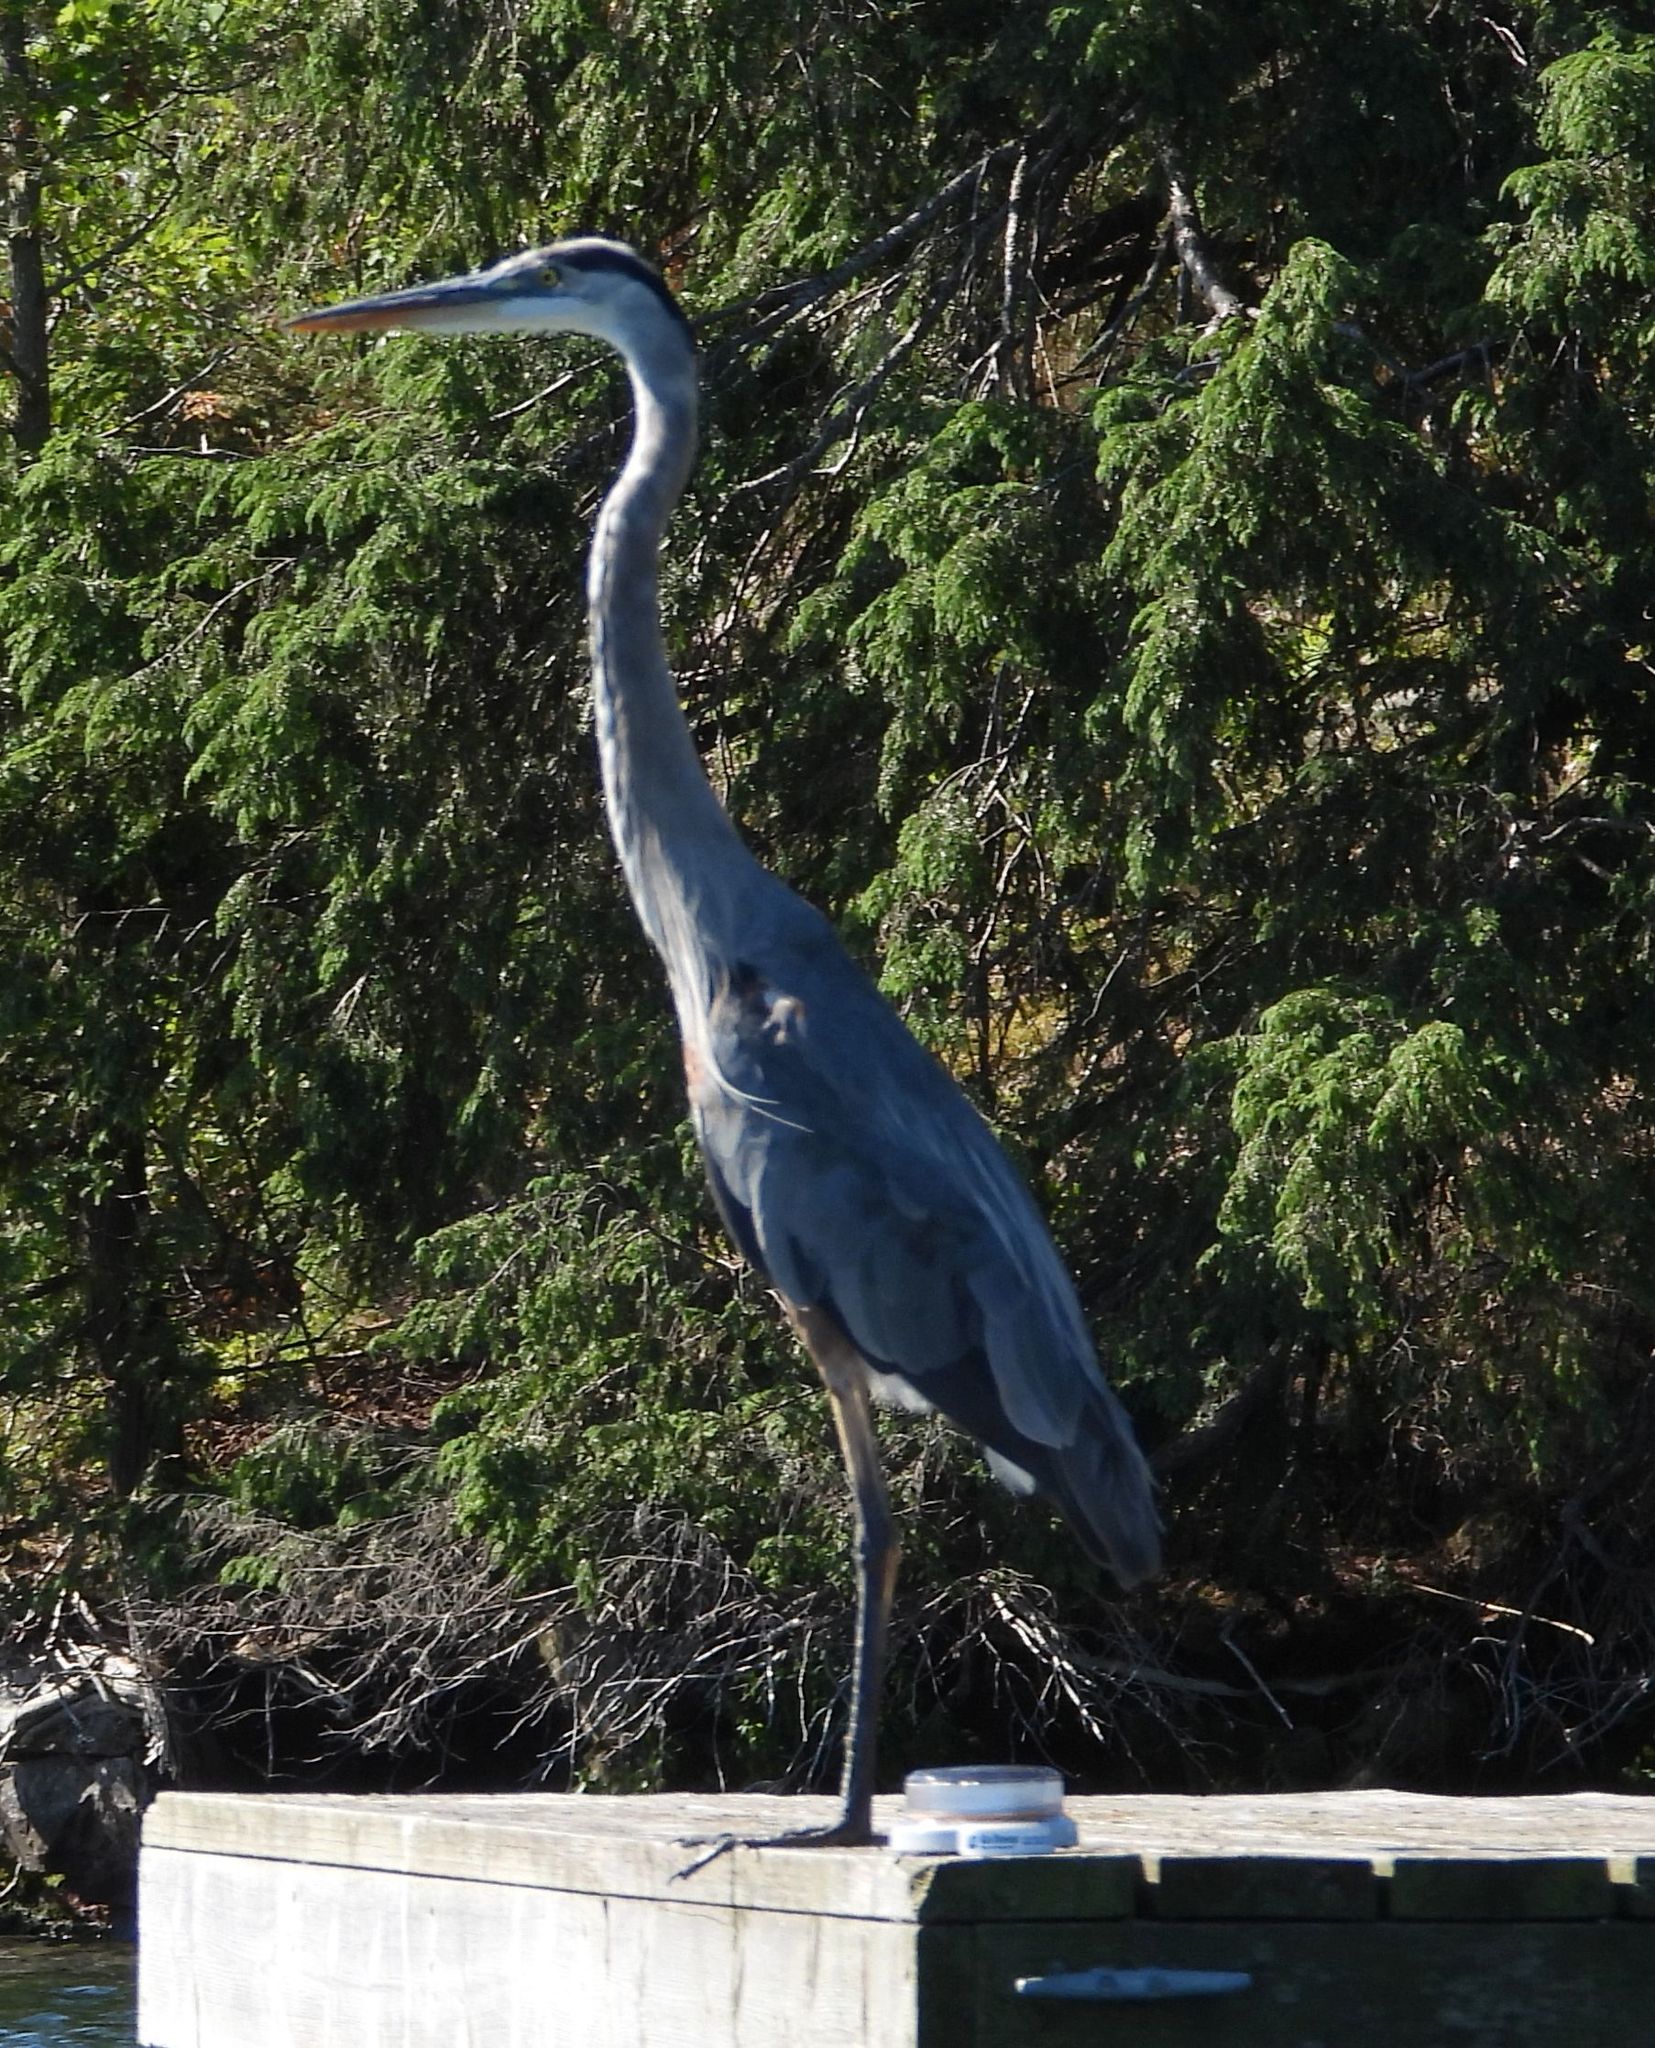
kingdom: Animalia
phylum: Chordata
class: Aves
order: Pelecaniformes
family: Ardeidae
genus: Ardea
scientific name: Ardea herodias
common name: Great blue heron
